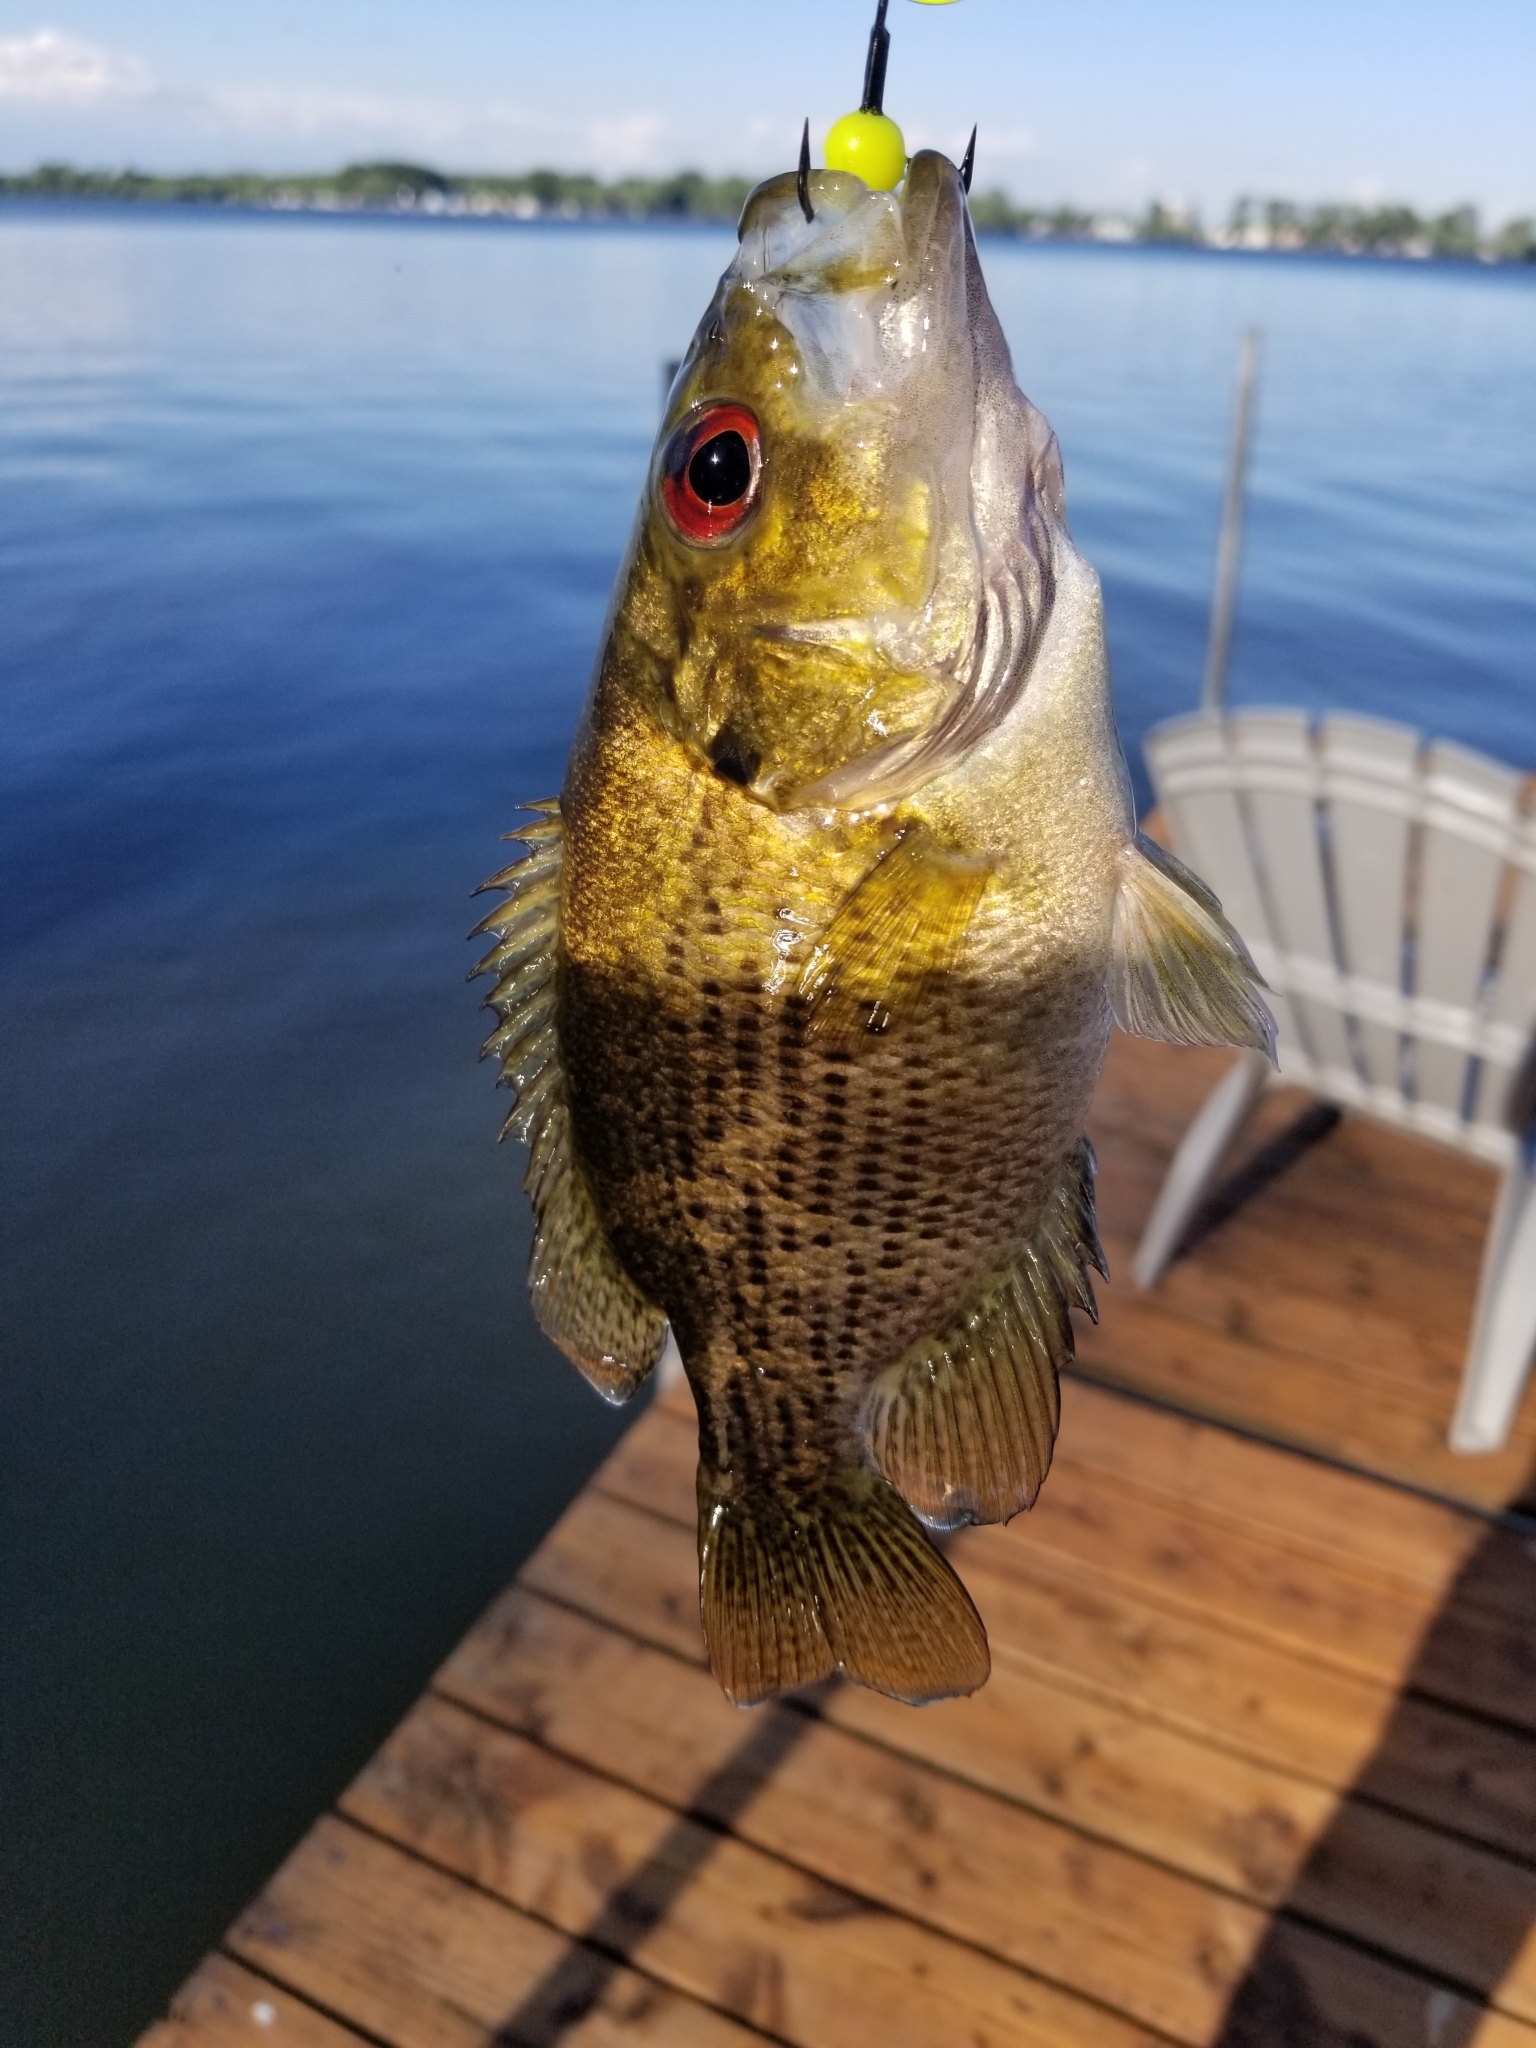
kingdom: Animalia
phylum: Chordata
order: Perciformes
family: Centrarchidae
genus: Ambloplites
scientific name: Ambloplites rupestris
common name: Rock bass
